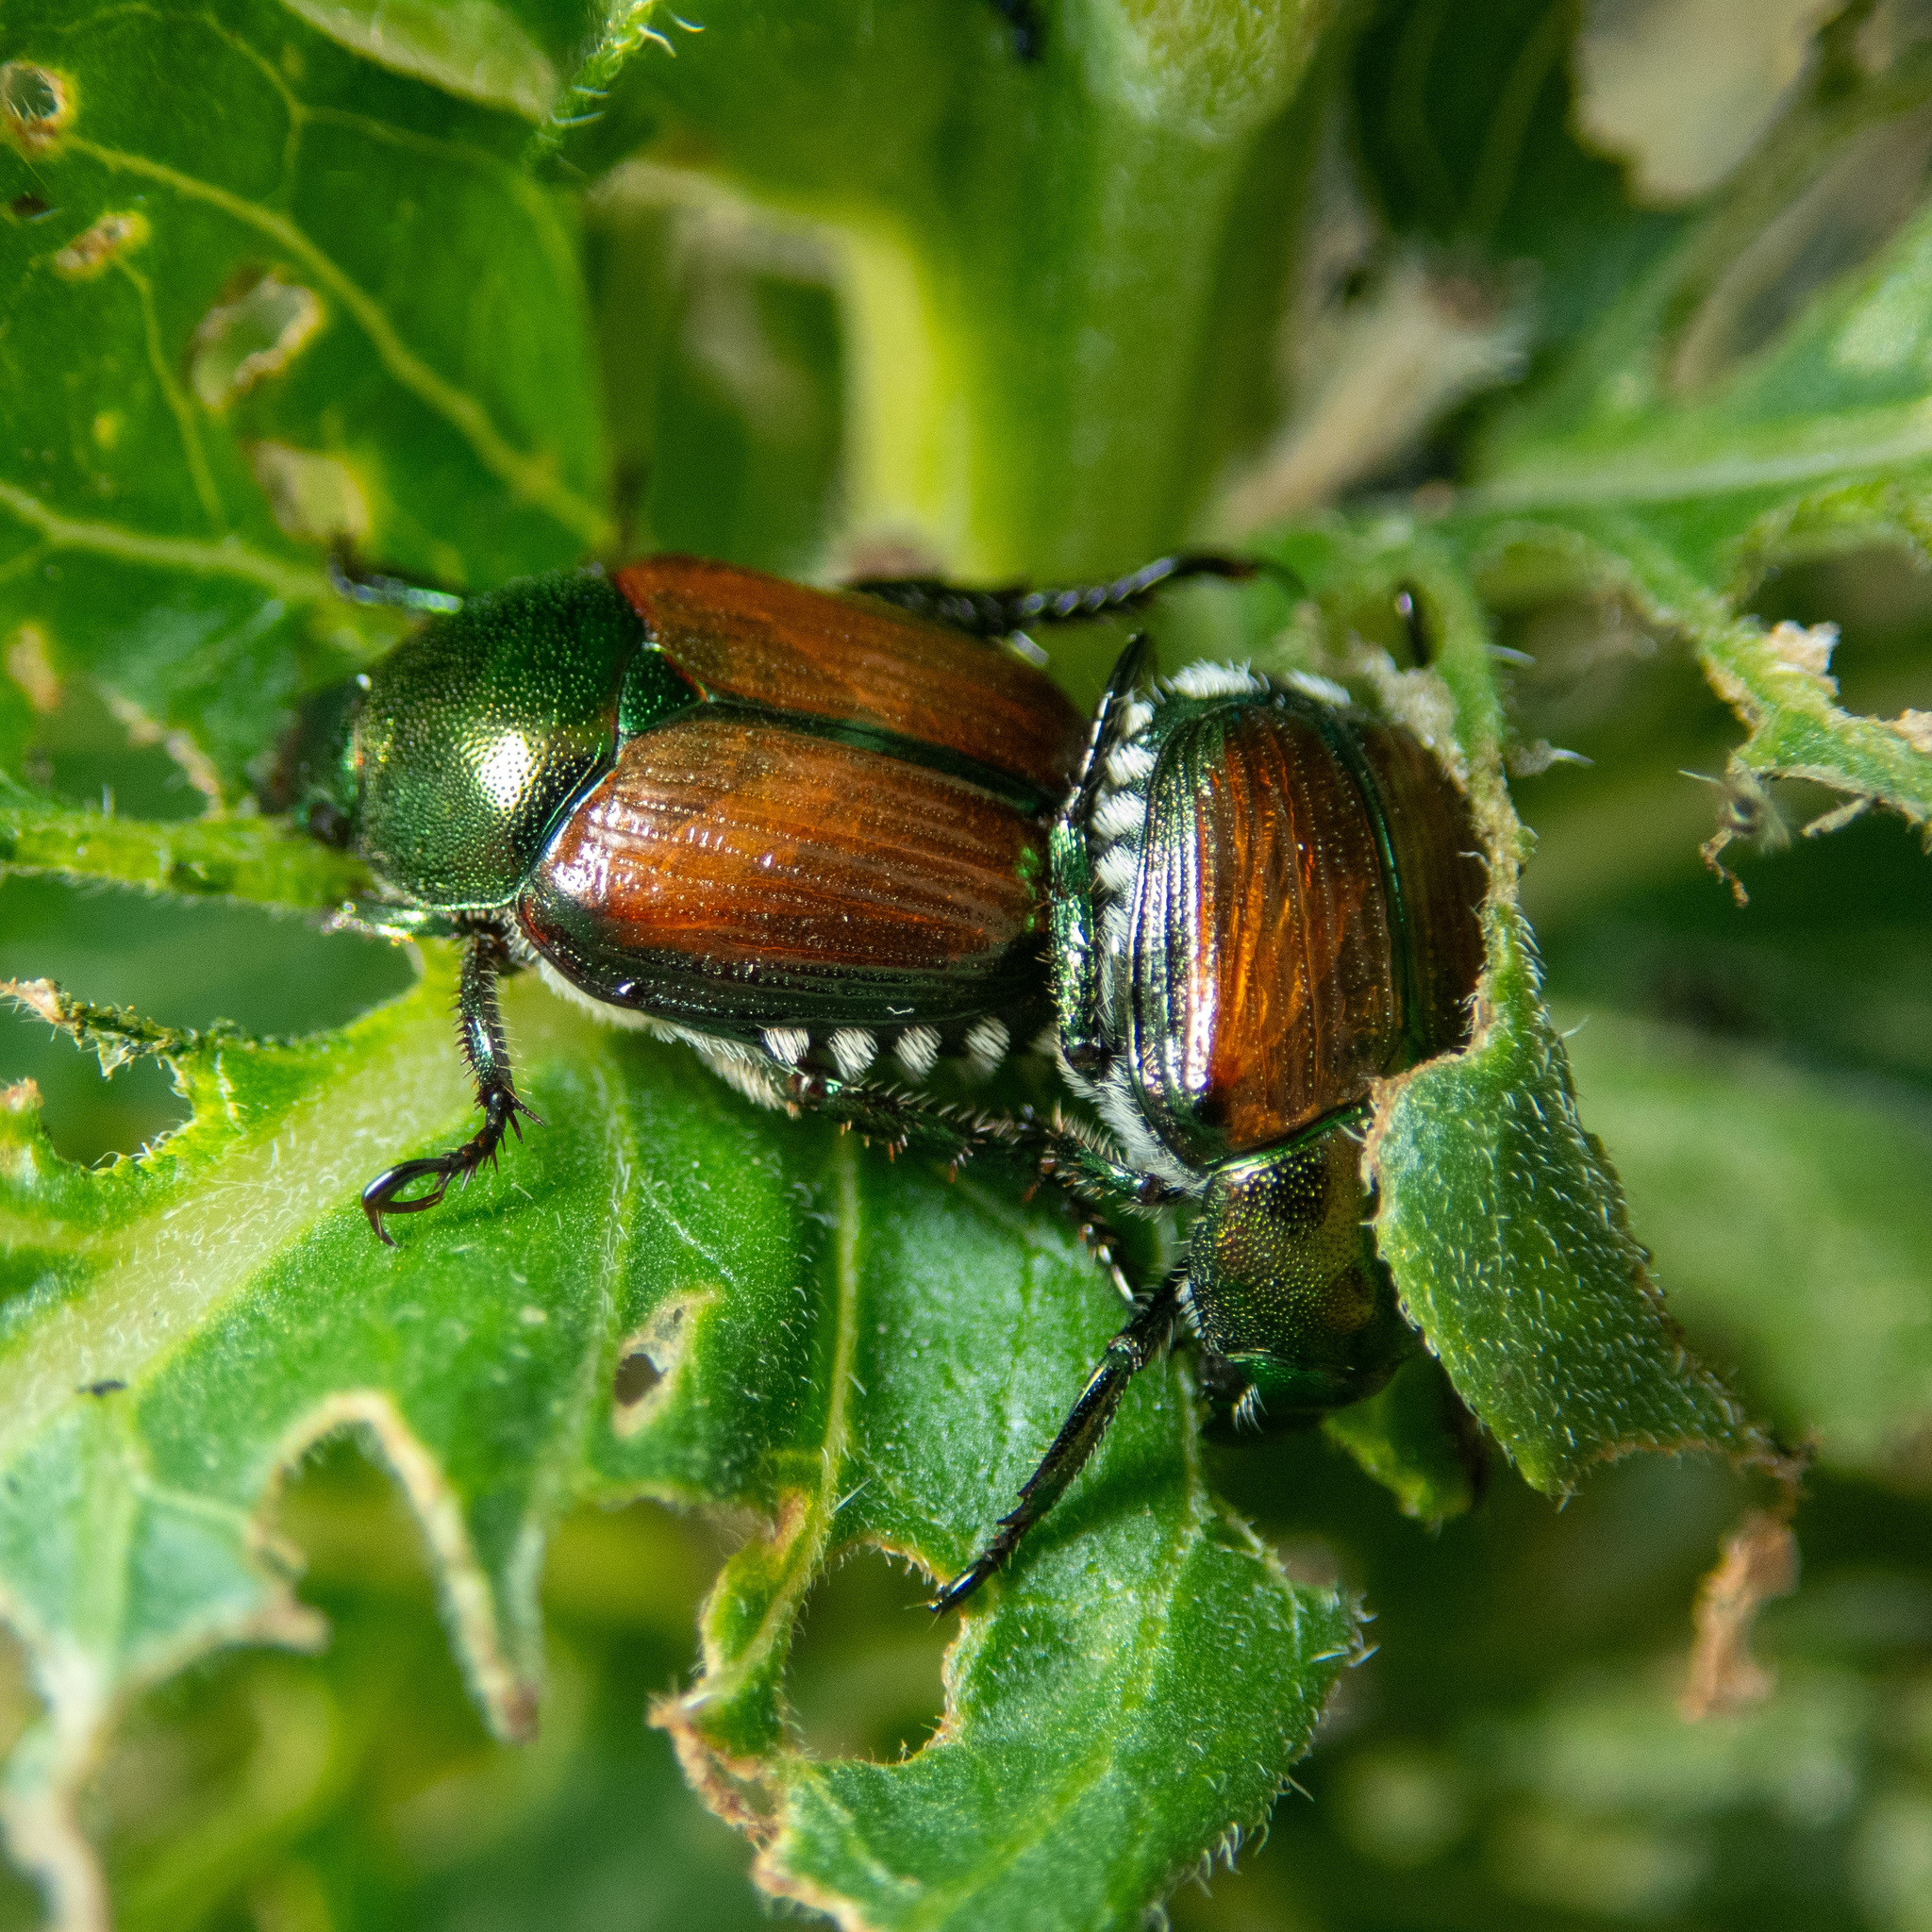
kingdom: Animalia
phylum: Arthropoda
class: Insecta
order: Coleoptera
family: Scarabaeidae
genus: Popillia
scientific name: Popillia japonica
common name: Japanese beetle
